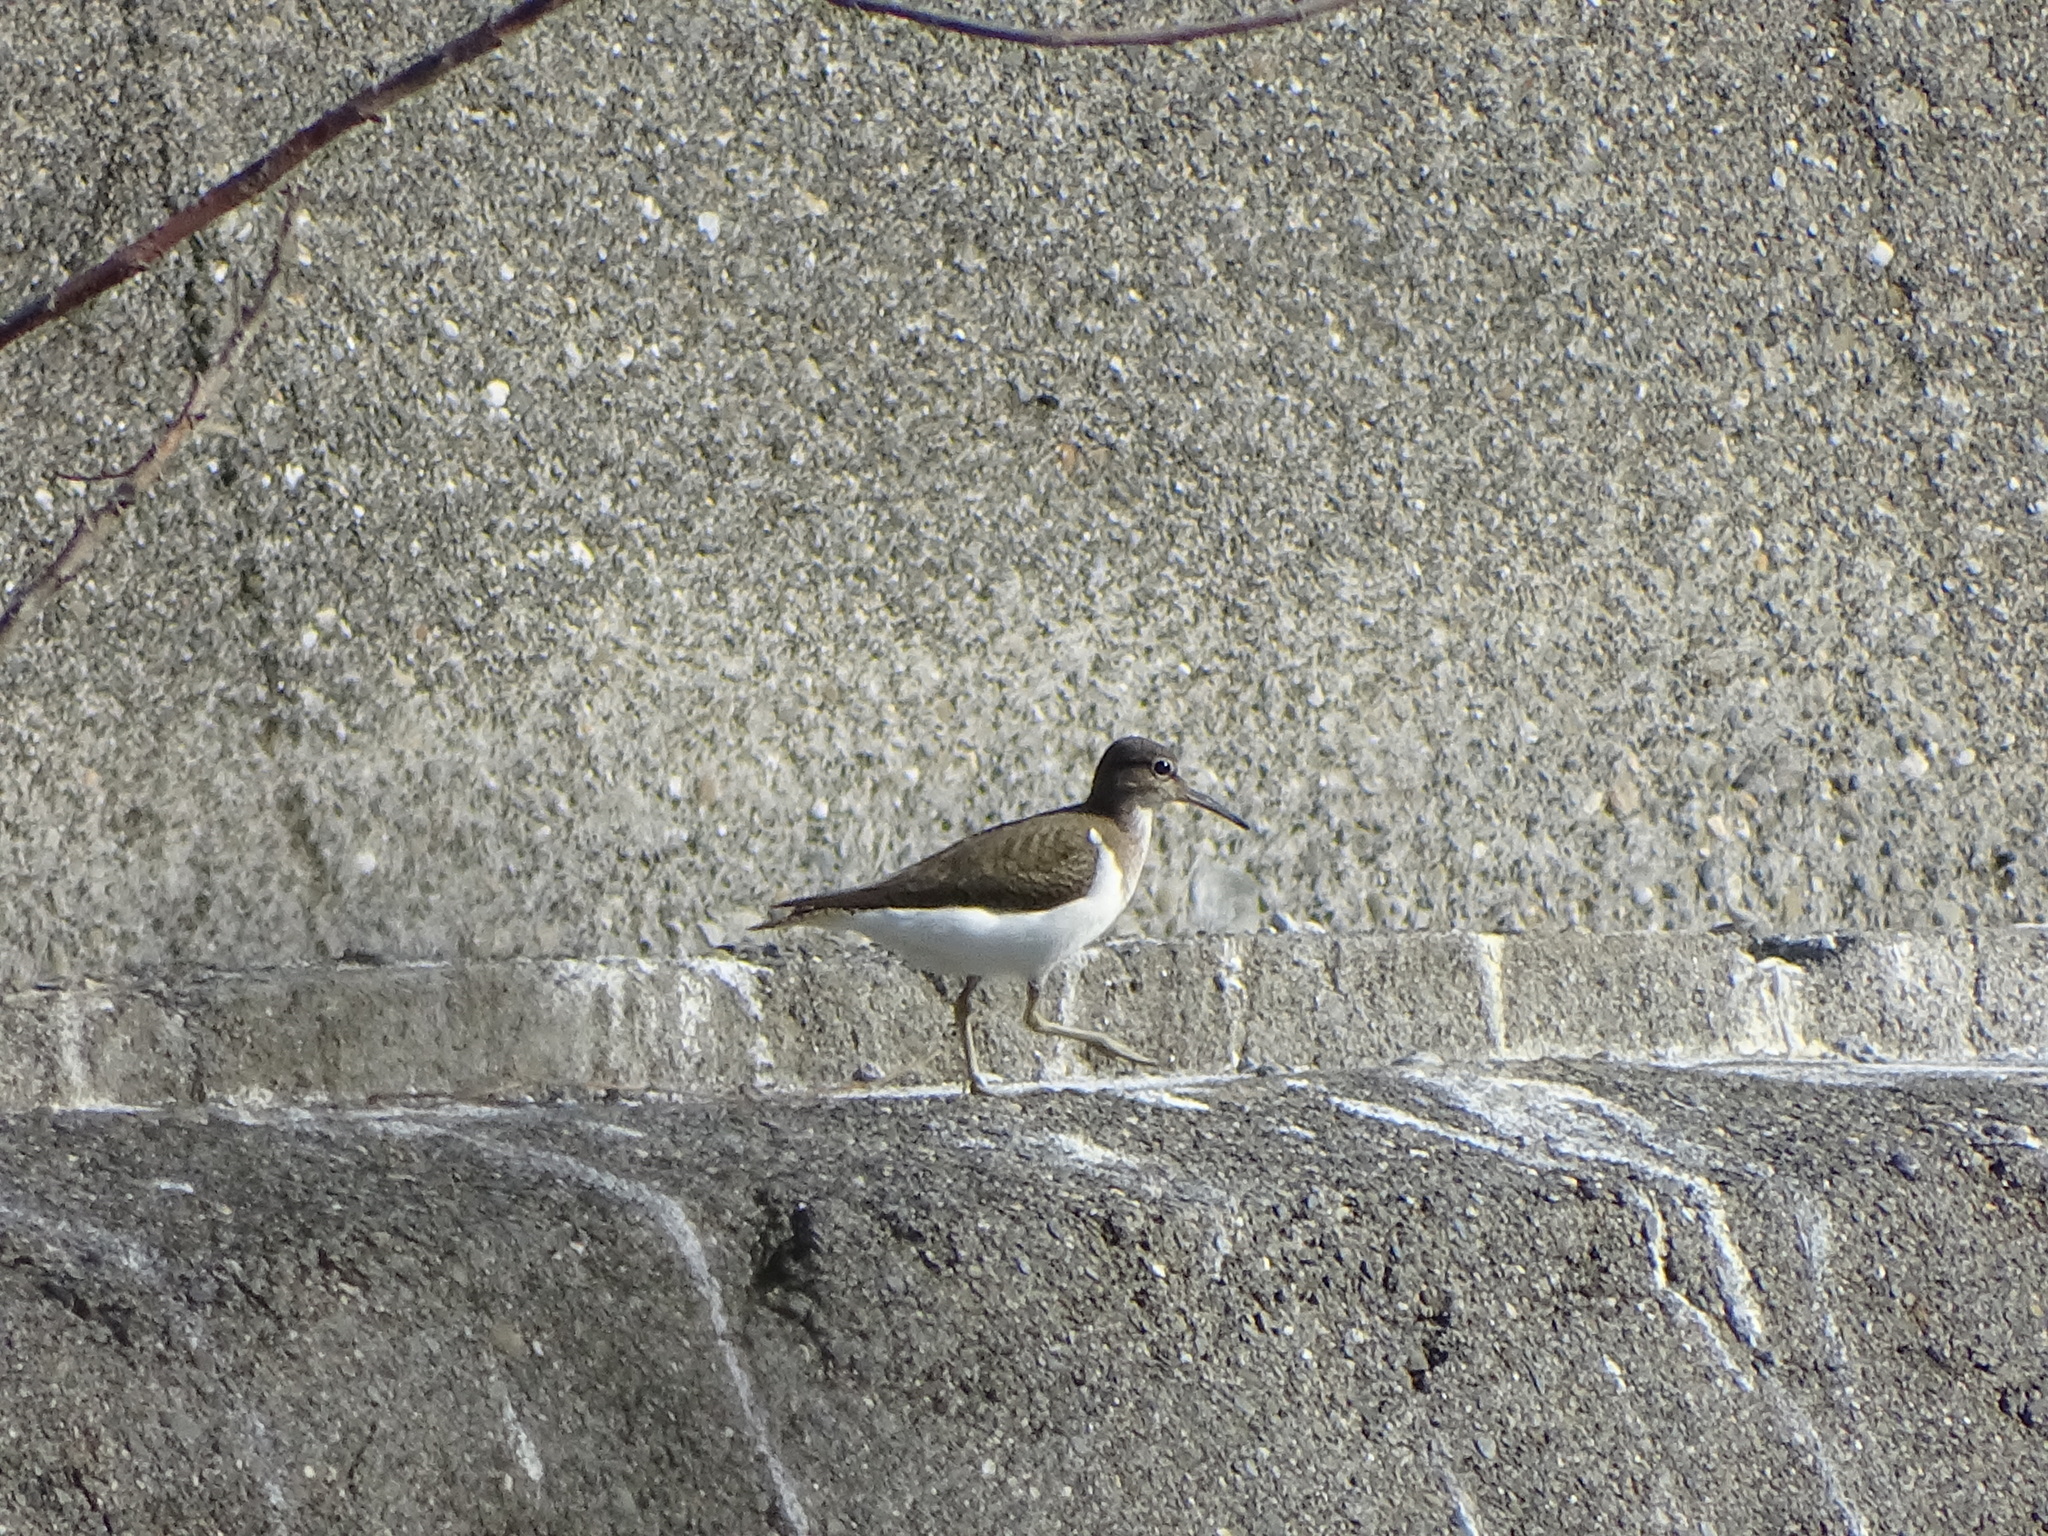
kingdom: Animalia
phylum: Chordata
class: Aves
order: Charadriiformes
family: Scolopacidae
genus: Actitis
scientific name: Actitis hypoleucos
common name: Common sandpiper
